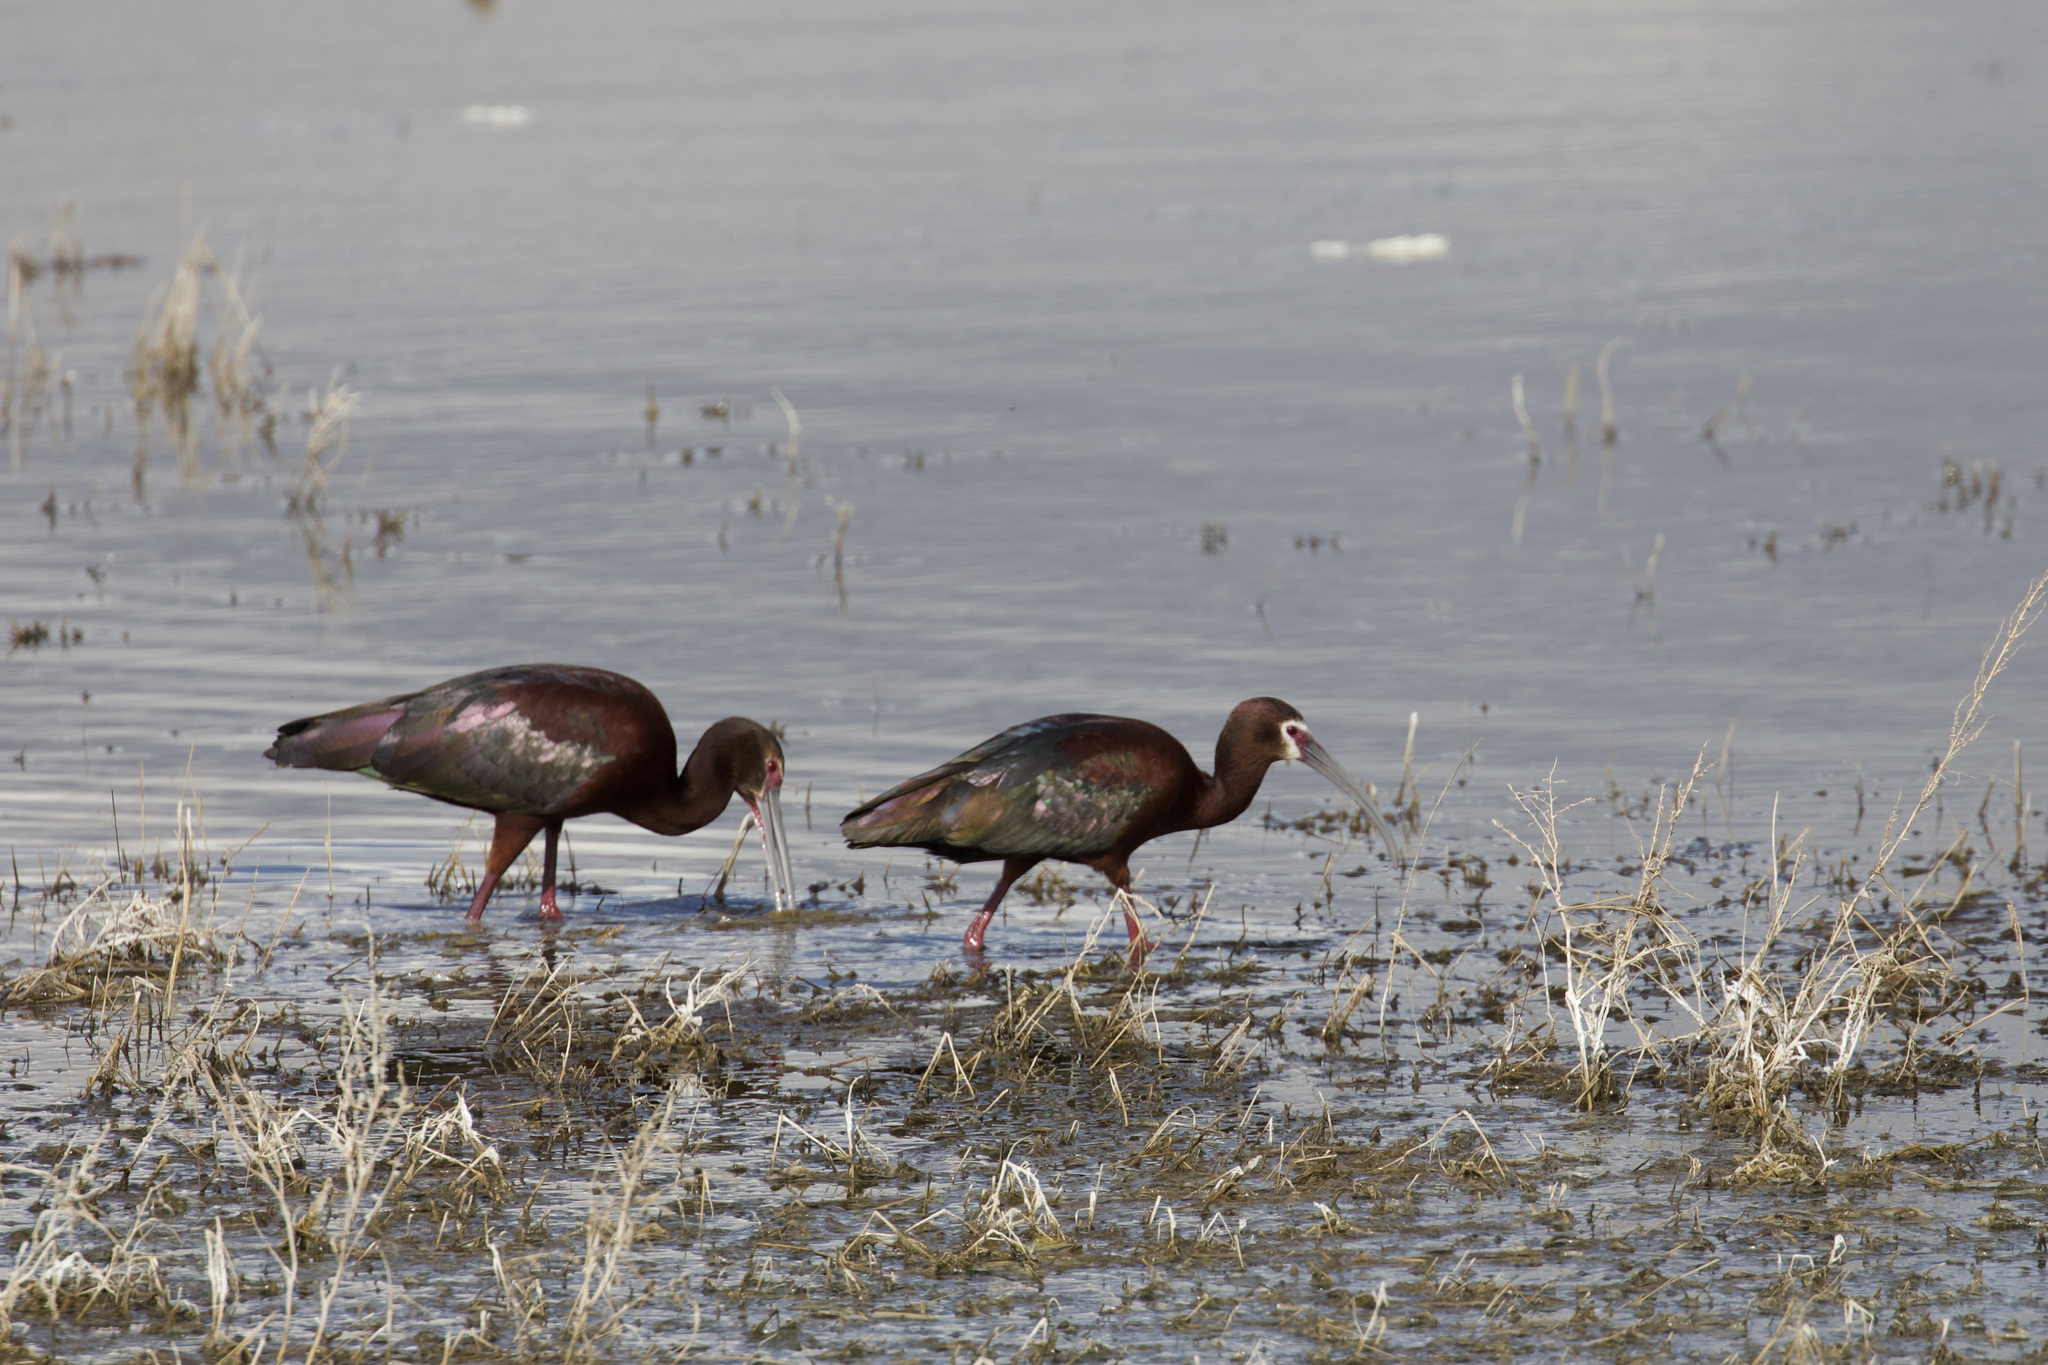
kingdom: Animalia
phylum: Chordata
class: Aves
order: Pelecaniformes
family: Threskiornithidae
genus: Plegadis
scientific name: Plegadis chihi
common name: White-faced ibis
